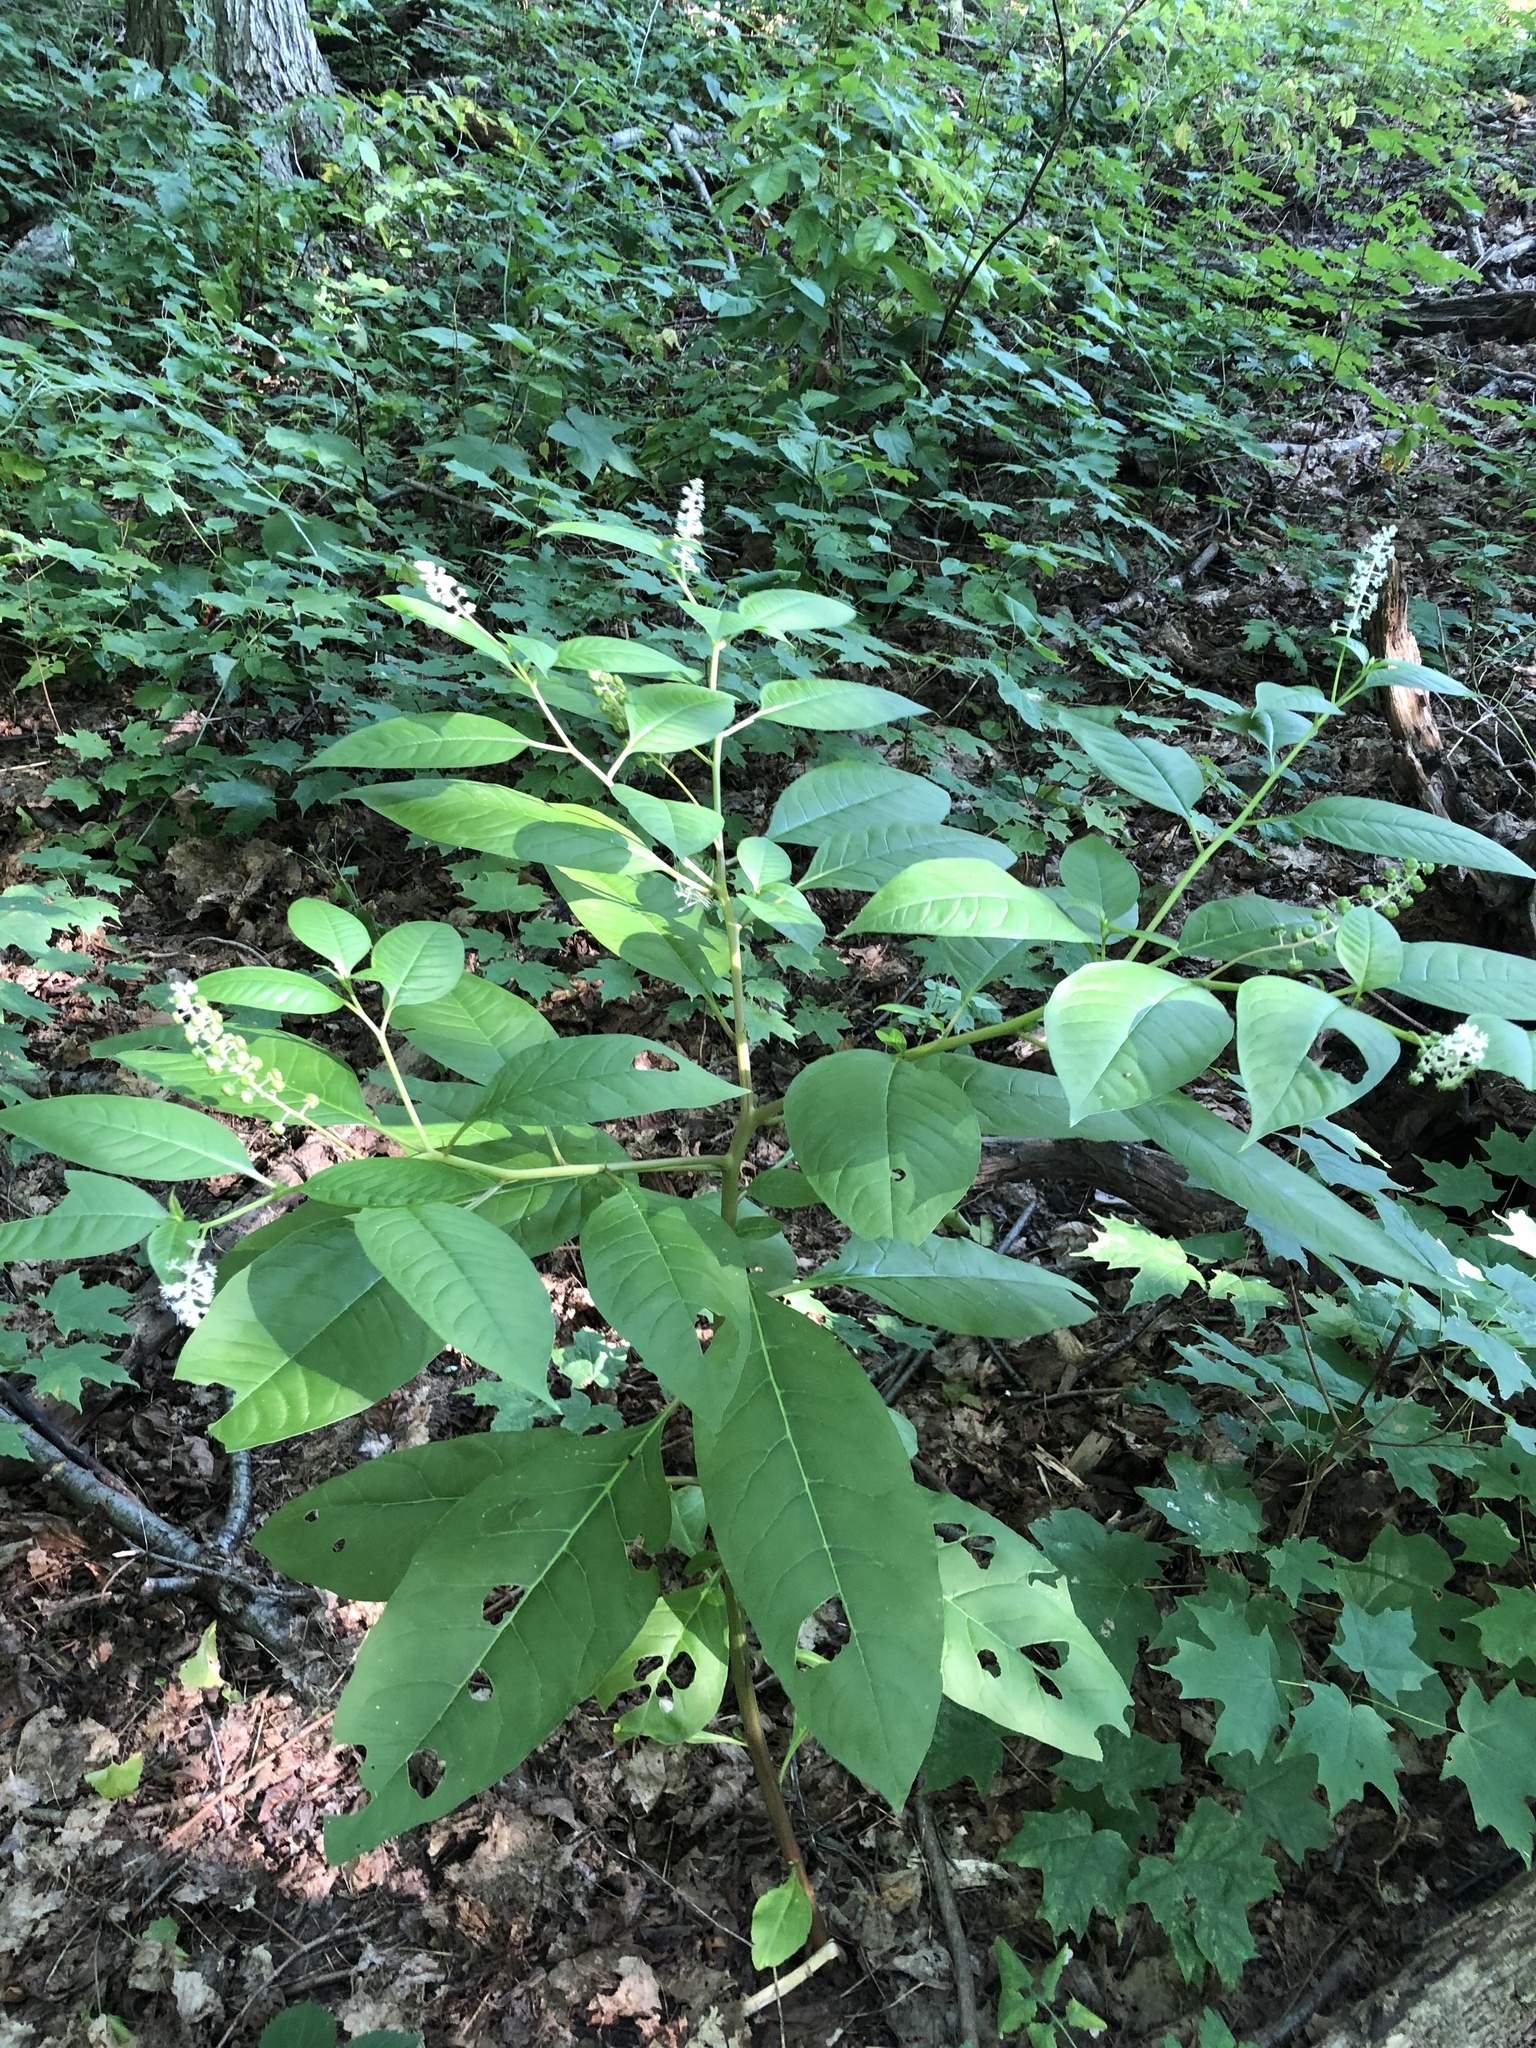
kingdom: Plantae
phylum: Tracheophyta
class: Magnoliopsida
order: Caryophyllales
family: Phytolaccaceae
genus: Phytolacca
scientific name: Phytolacca americana
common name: American pokeweed
